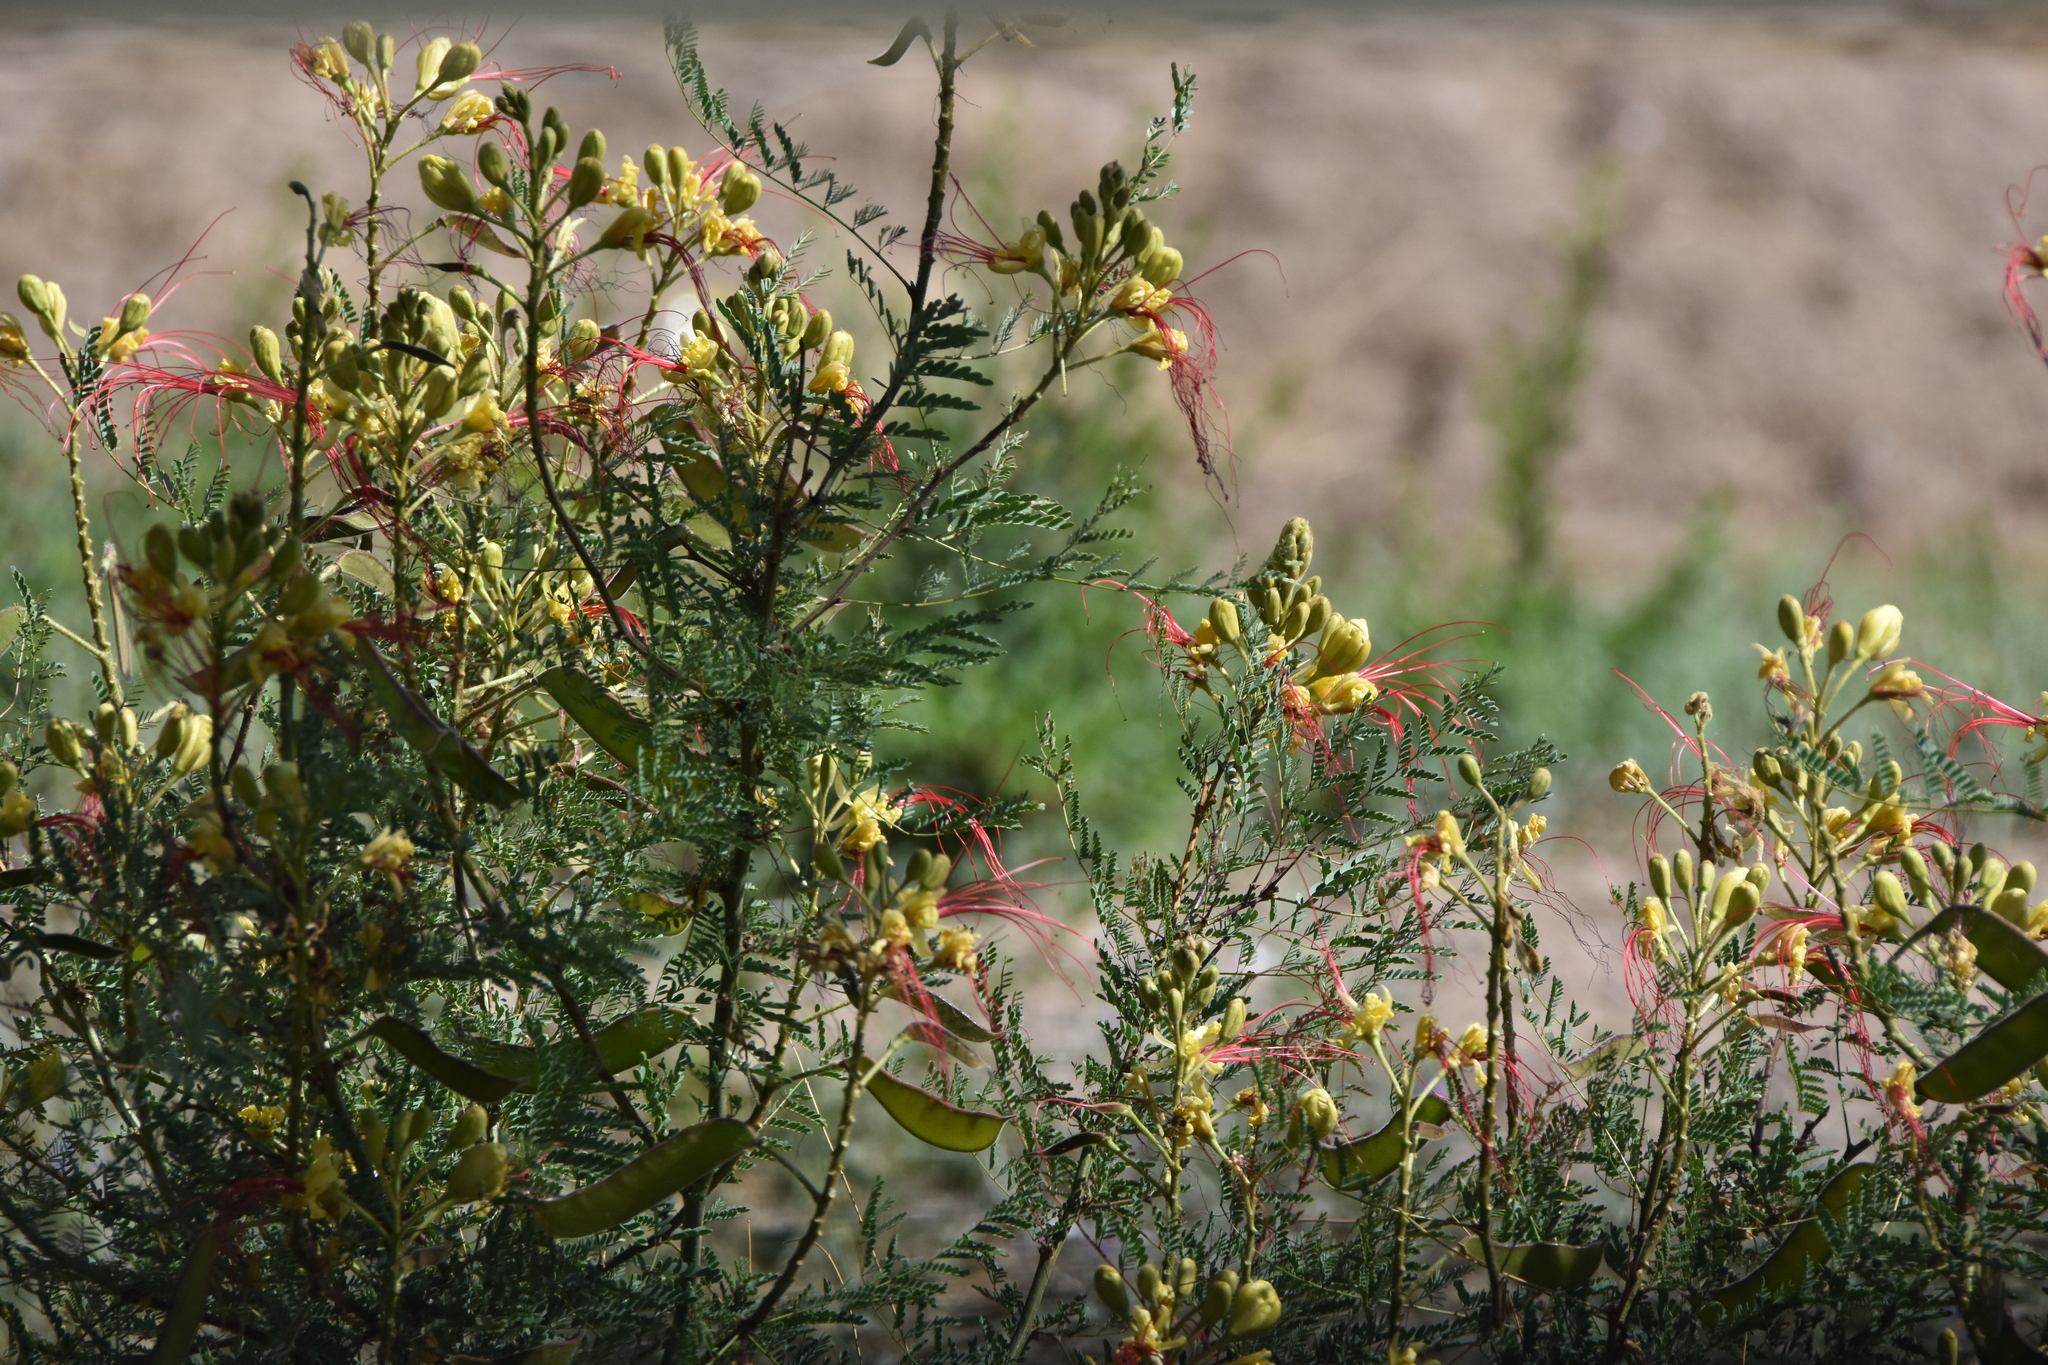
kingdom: Plantae
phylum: Tracheophyta
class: Magnoliopsida
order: Fabales
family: Fabaceae
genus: Erythrostemon
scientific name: Erythrostemon gilliesii
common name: Bird-of-paradise shrub
